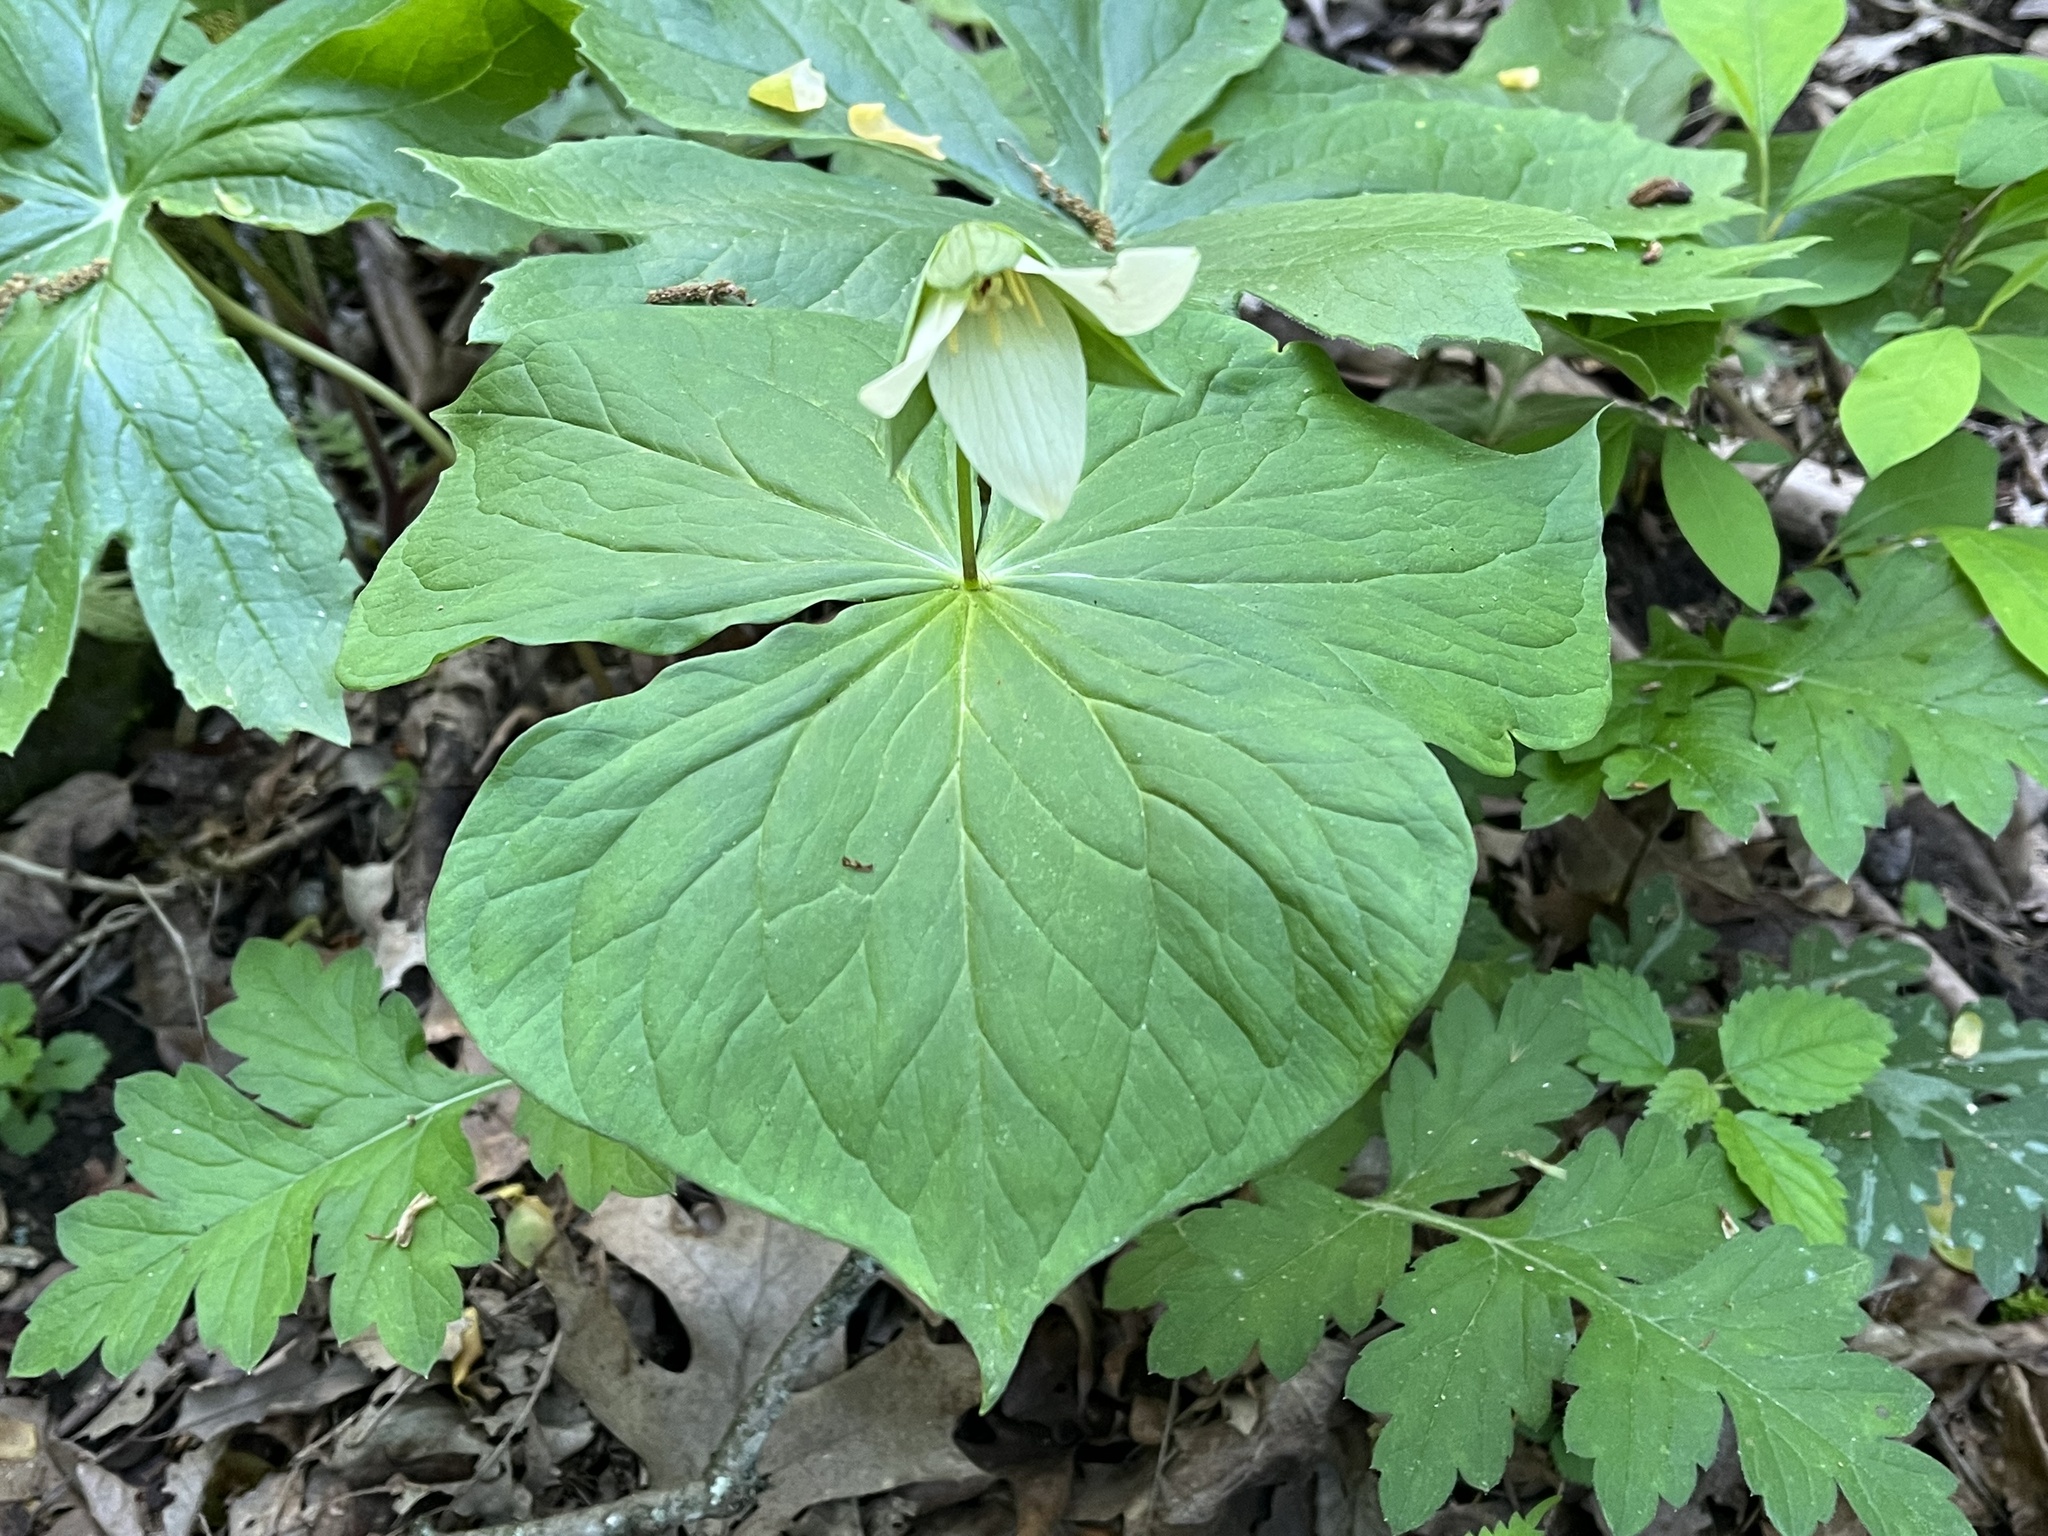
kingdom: Plantae
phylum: Tracheophyta
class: Liliopsida
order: Liliales
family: Melanthiaceae
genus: Trillium
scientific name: Trillium flexipes
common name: Drooping trillium
